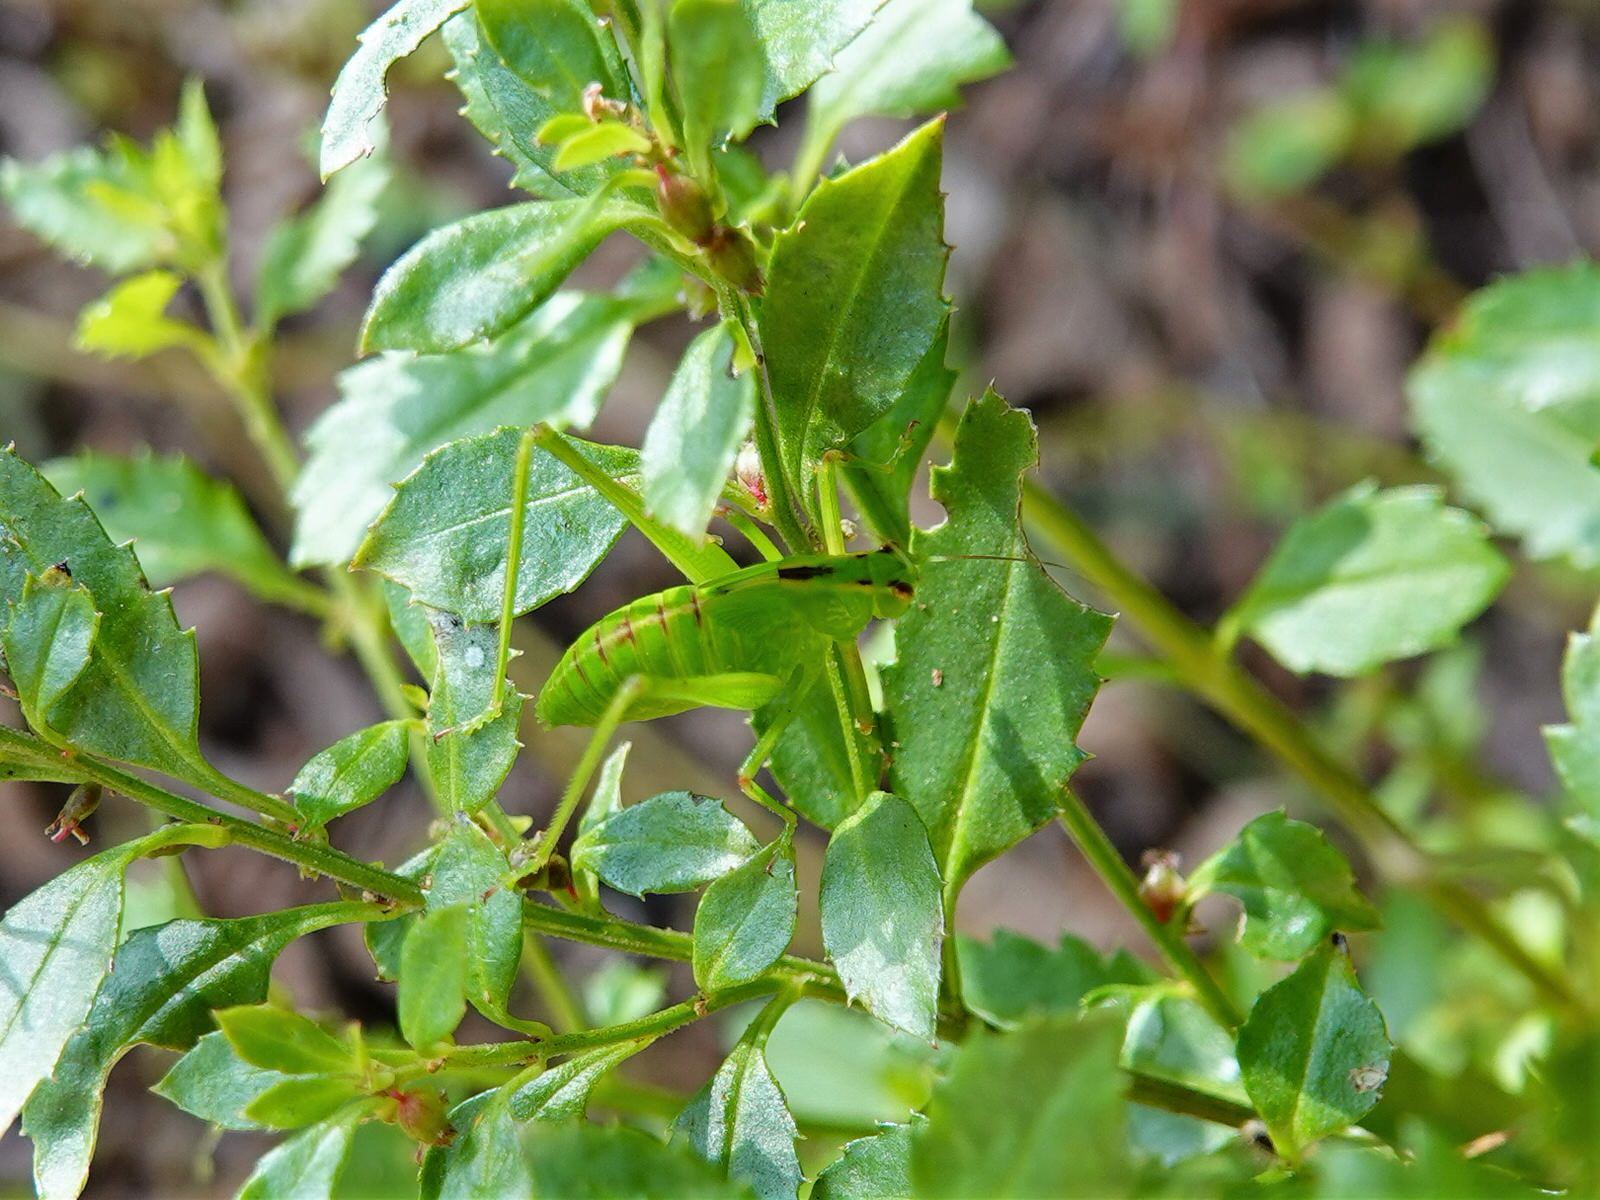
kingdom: Animalia
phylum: Arthropoda
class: Insecta
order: Orthoptera
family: Tettigoniidae
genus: Caedicia
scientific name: Caedicia simplex
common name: Common garden katydid
